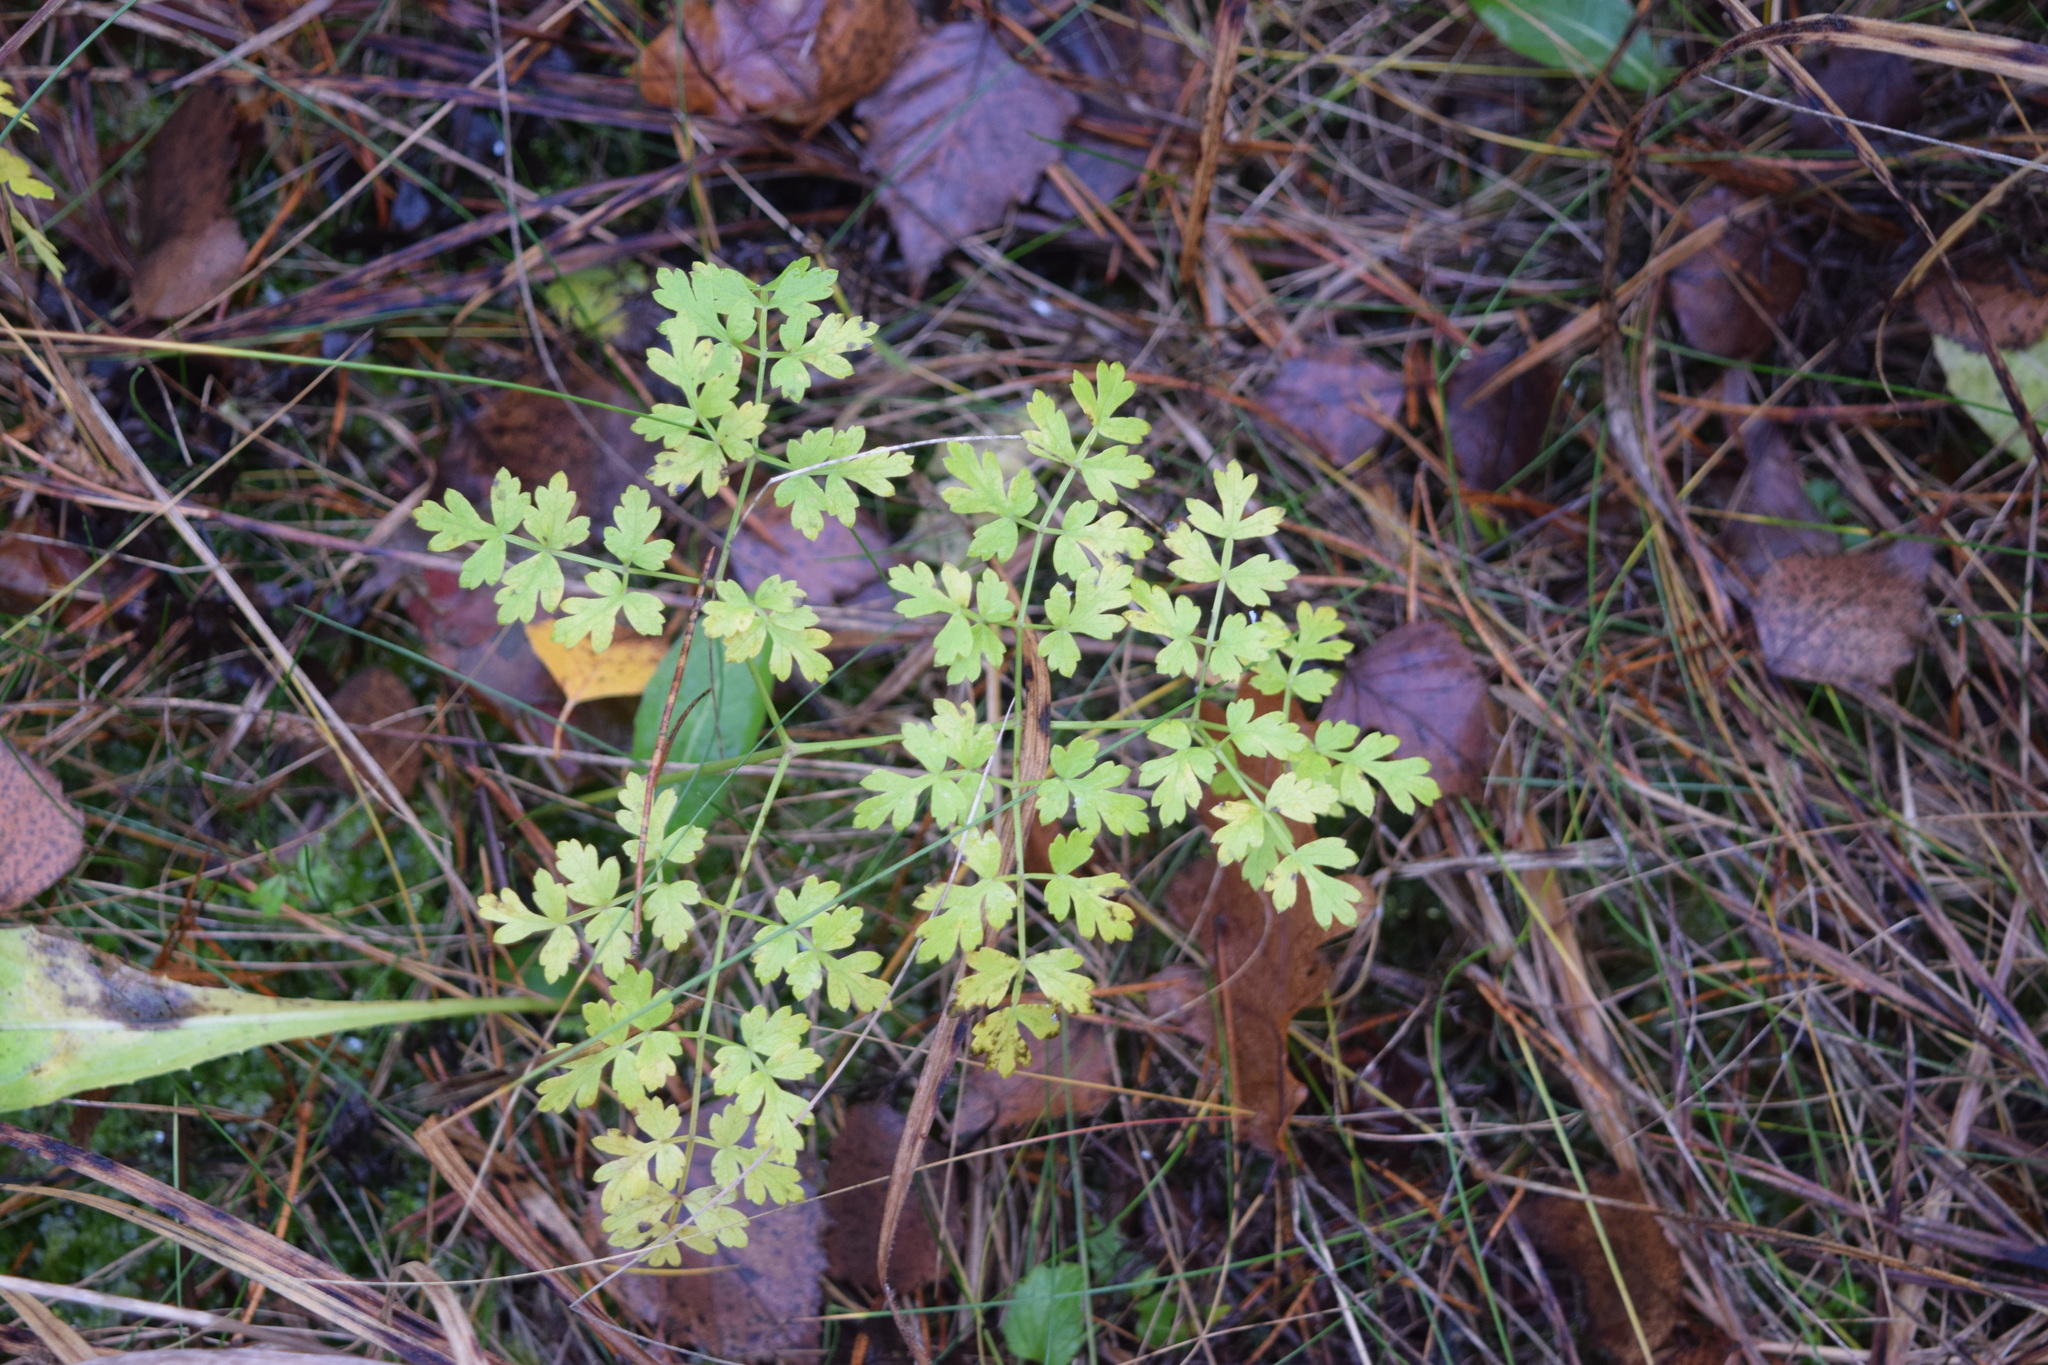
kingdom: Plantae
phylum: Tracheophyta
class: Magnoliopsida
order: Apiales
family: Apiaceae
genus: Oreoselinum
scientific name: Oreoselinum nigrum
